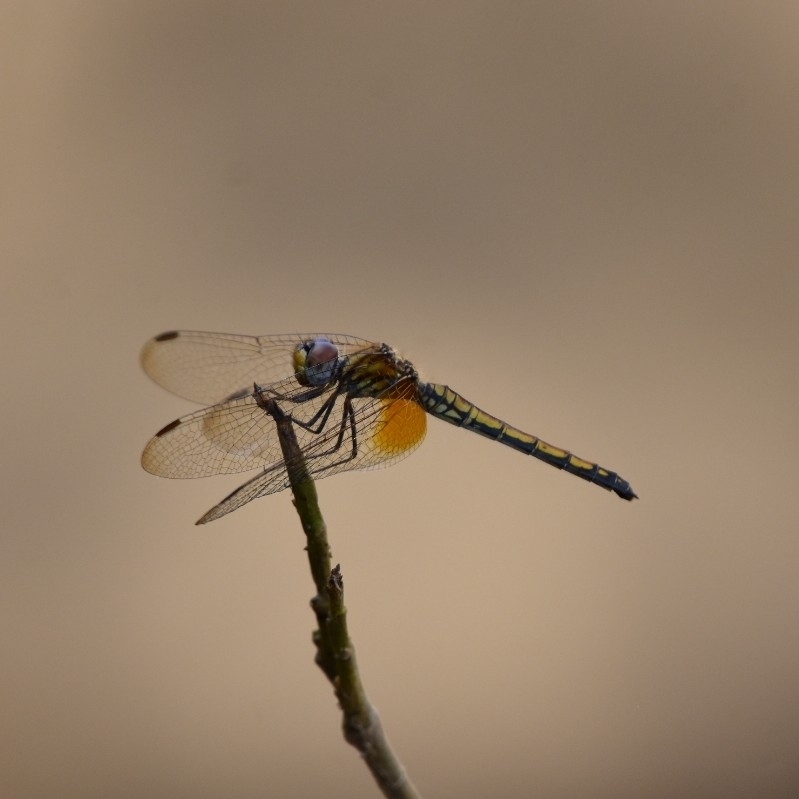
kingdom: Animalia
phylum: Arthropoda
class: Insecta
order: Odonata
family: Libellulidae
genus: Trithemis
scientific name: Trithemis aurora
